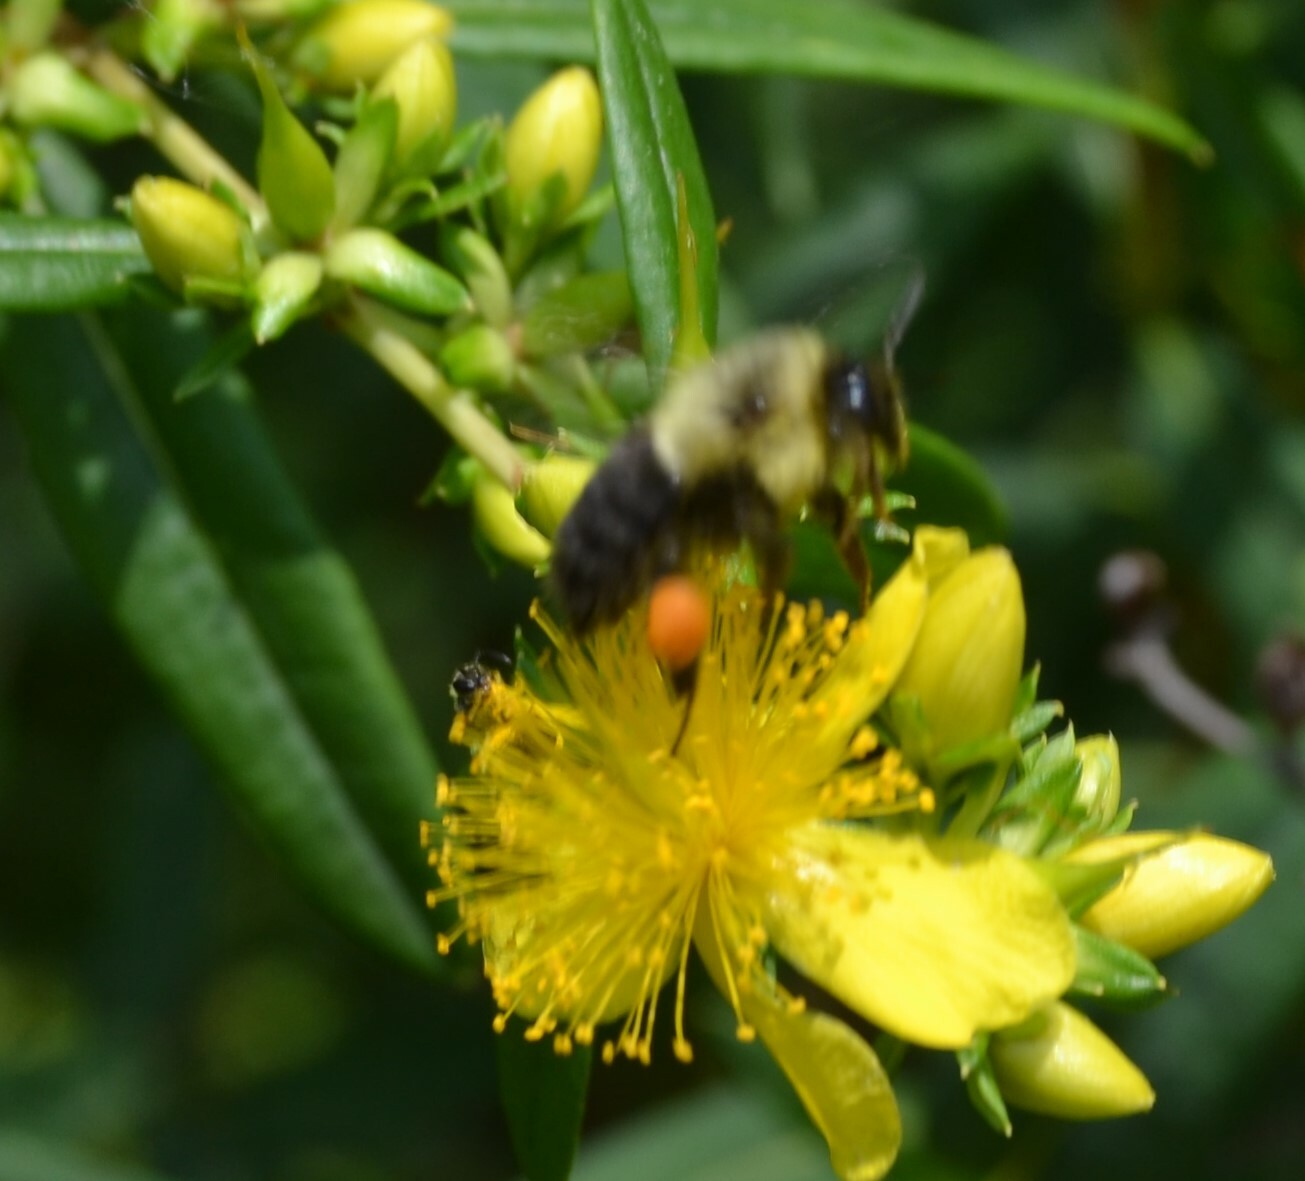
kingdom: Animalia
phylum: Arthropoda
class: Insecta
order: Hymenoptera
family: Apidae
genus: Bombus
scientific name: Bombus impatiens
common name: Common eastern bumble bee
